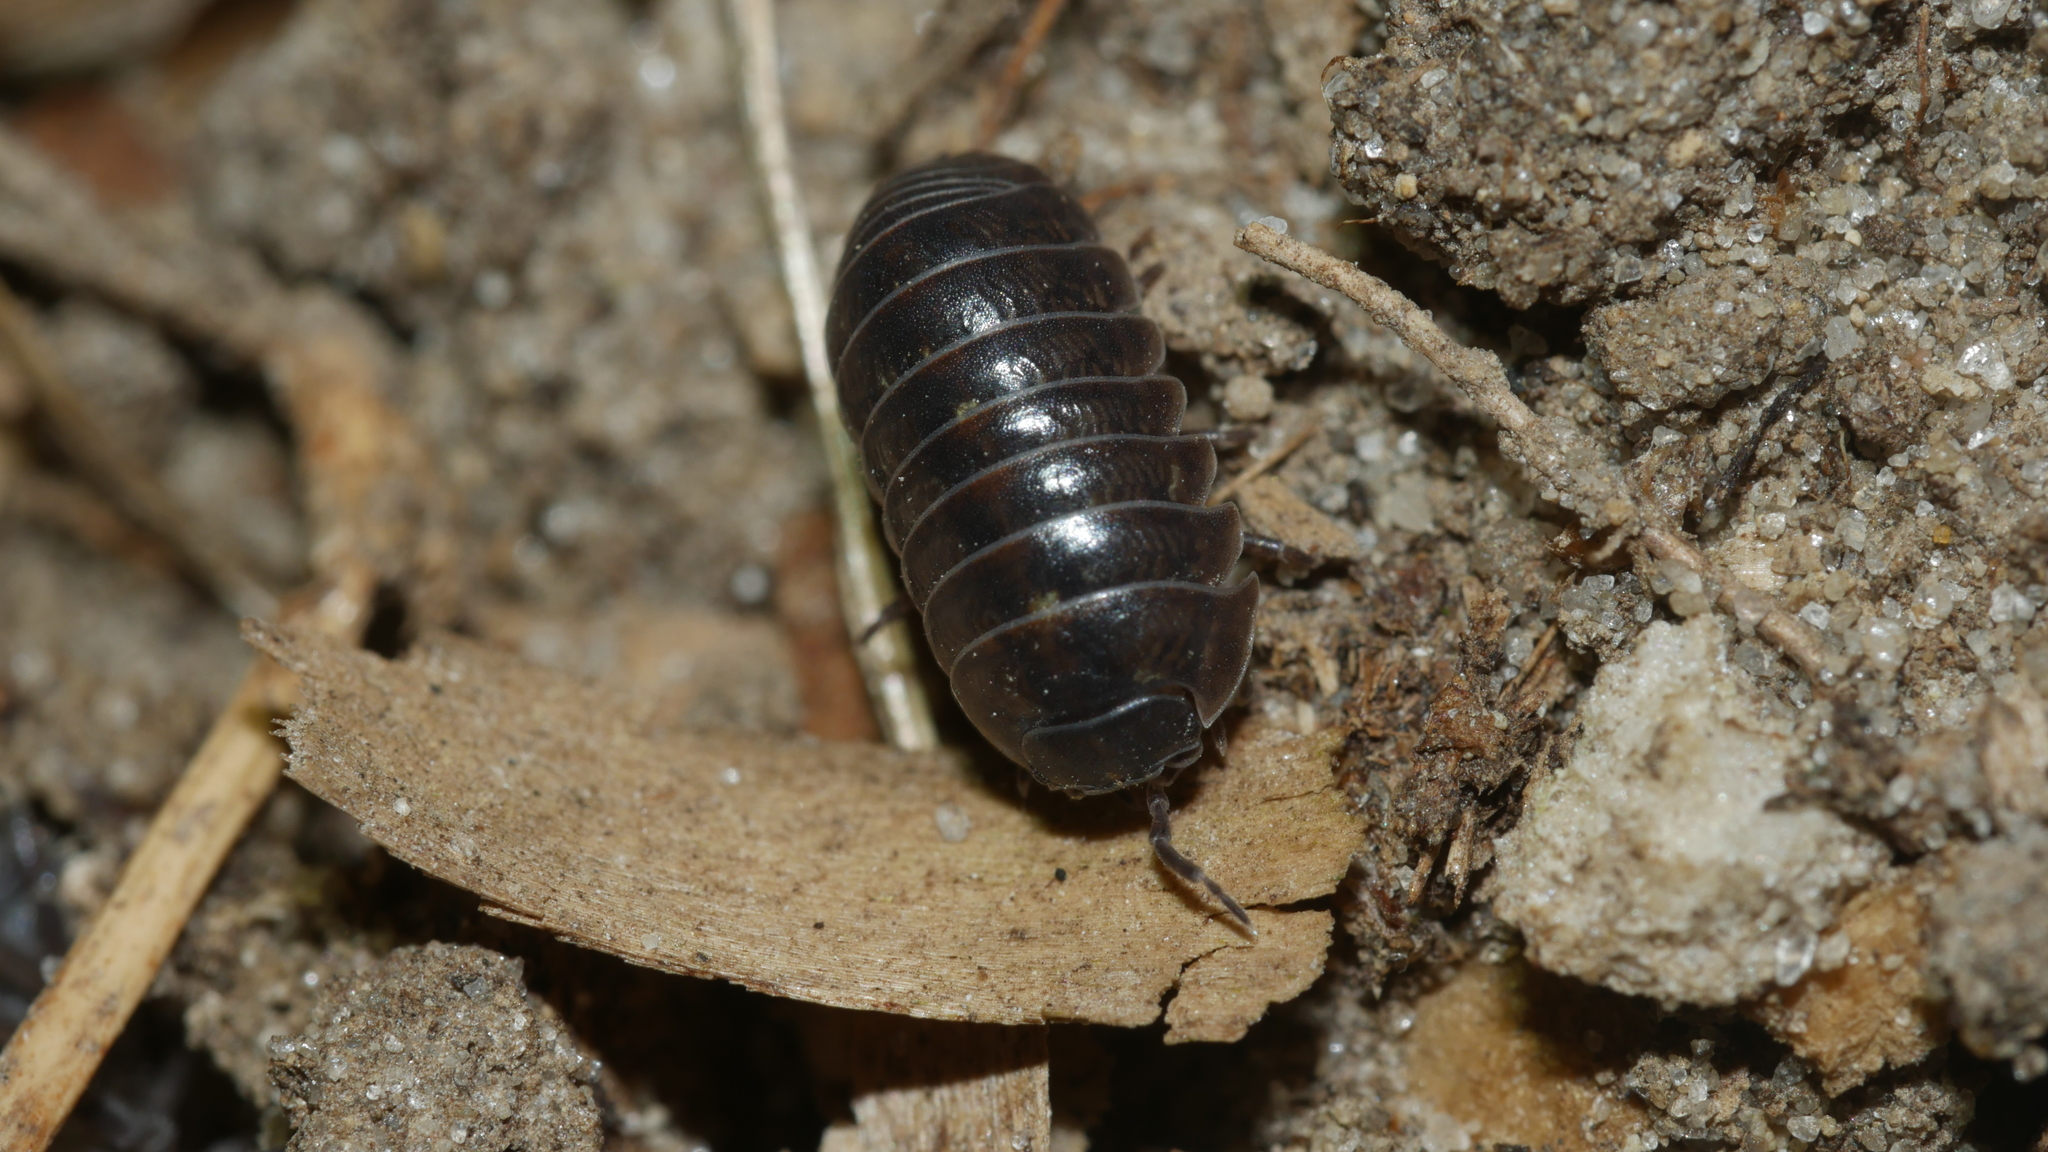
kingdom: Animalia
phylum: Arthropoda
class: Malacostraca
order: Isopoda
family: Armadillidiidae
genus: Armadillidium
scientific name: Armadillidium vulgare
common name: Common pill woodlouse
